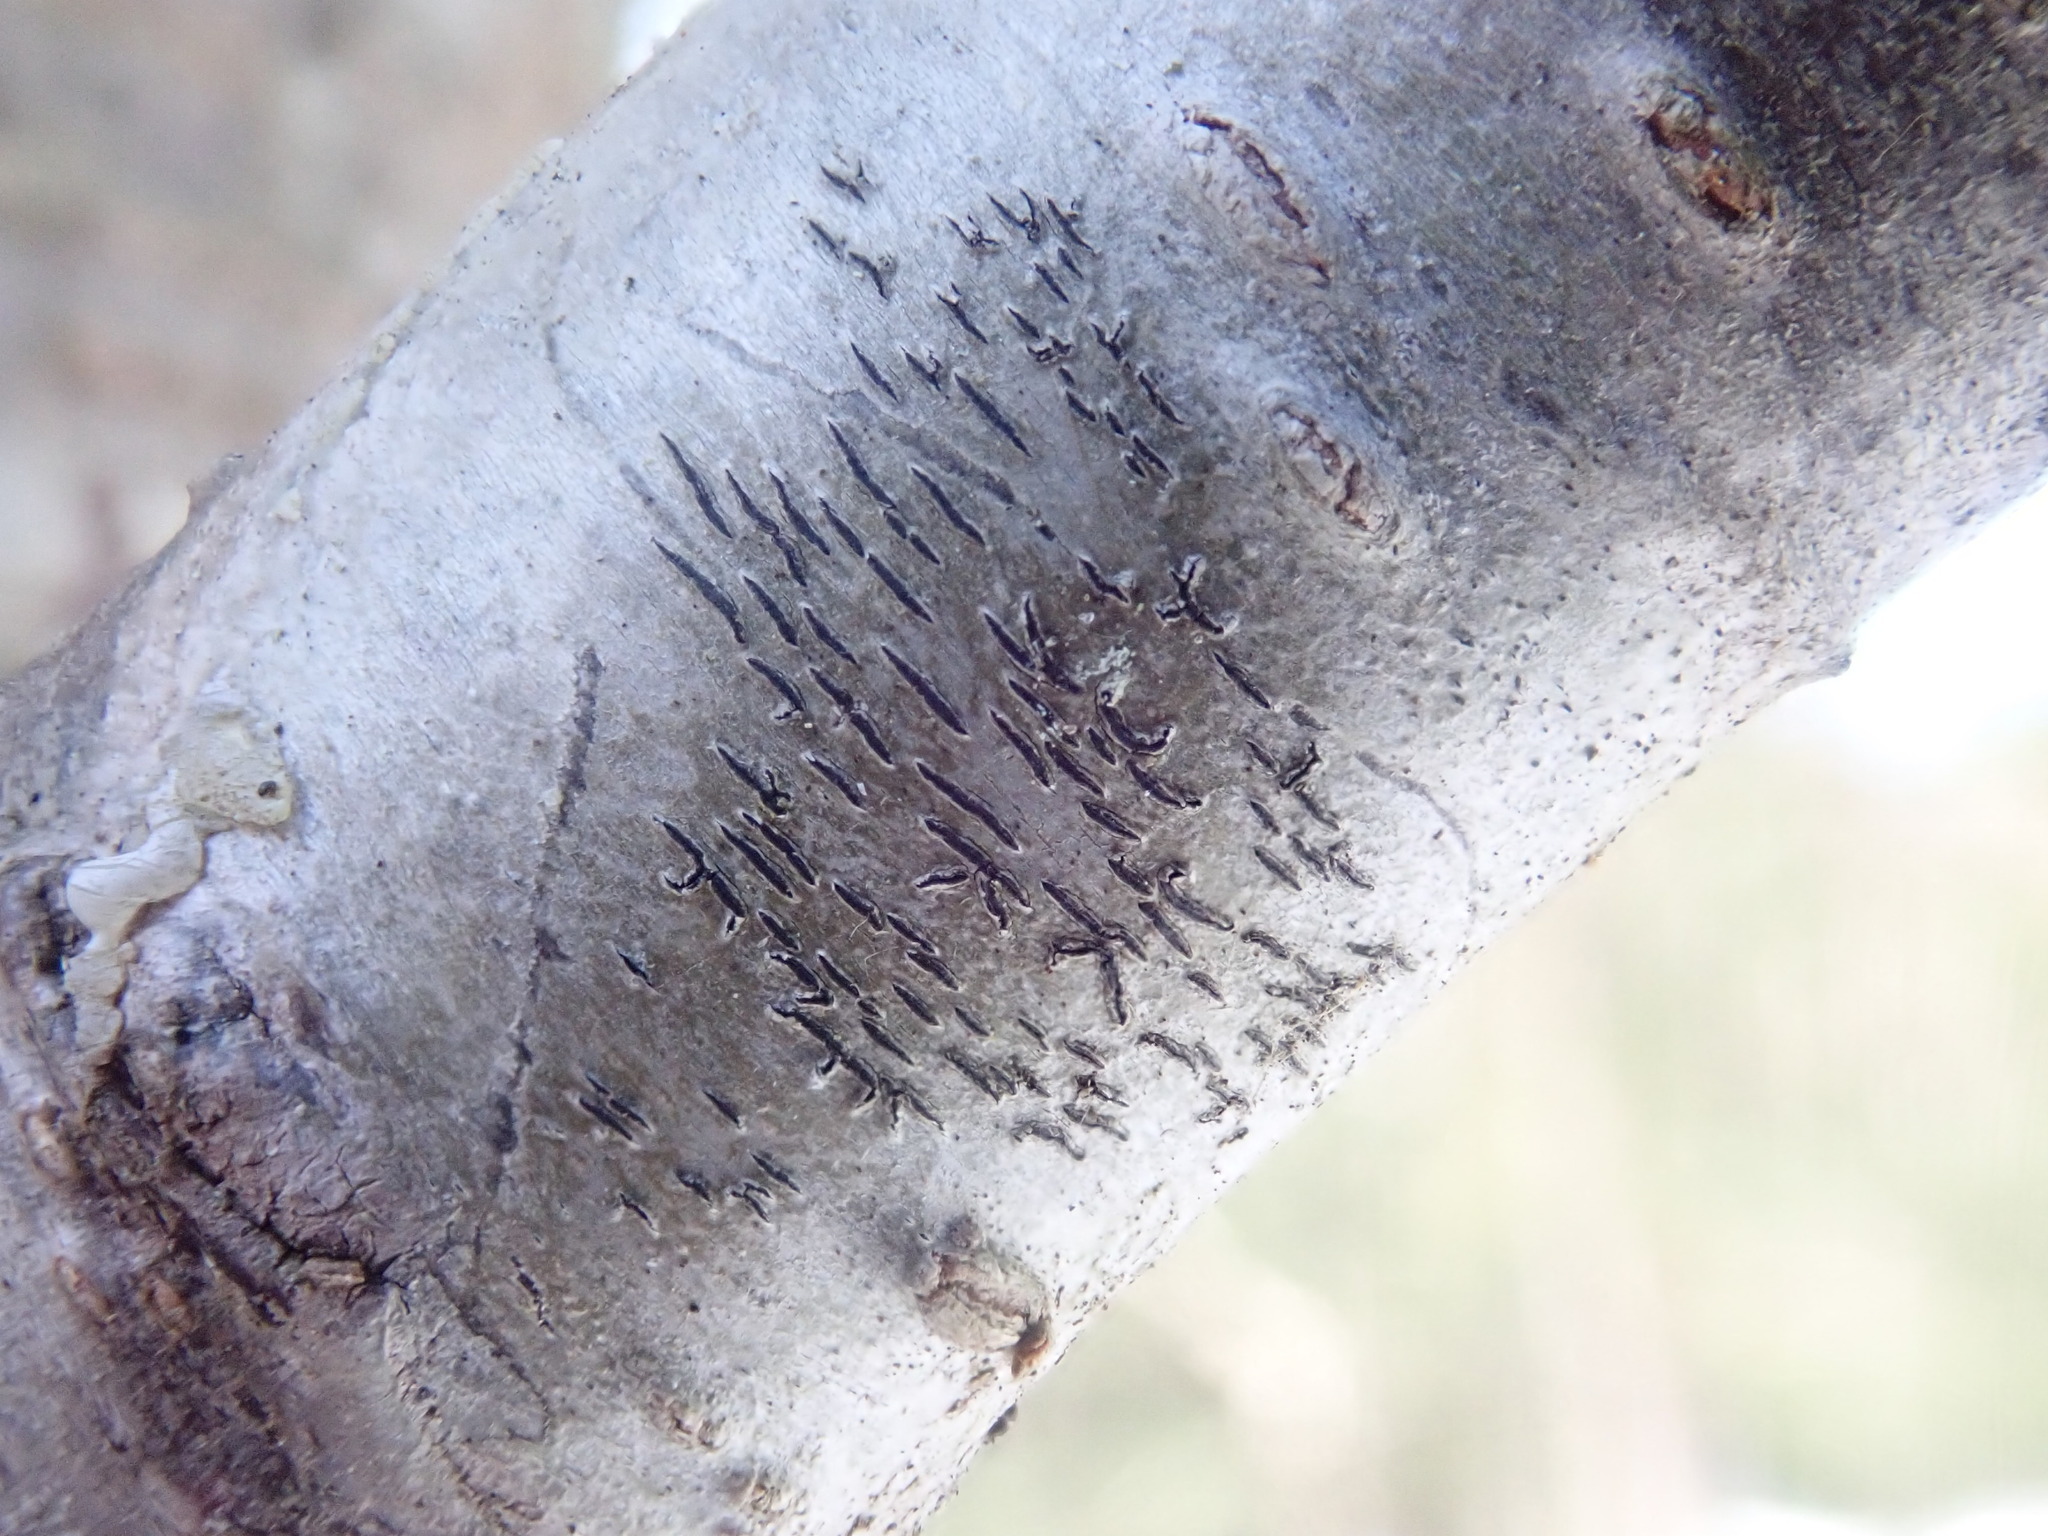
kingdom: Fungi
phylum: Ascomycota
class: Lecanoromycetes
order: Ostropales
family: Graphidaceae
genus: Graphis
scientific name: Graphis scripta
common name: Script lichen
